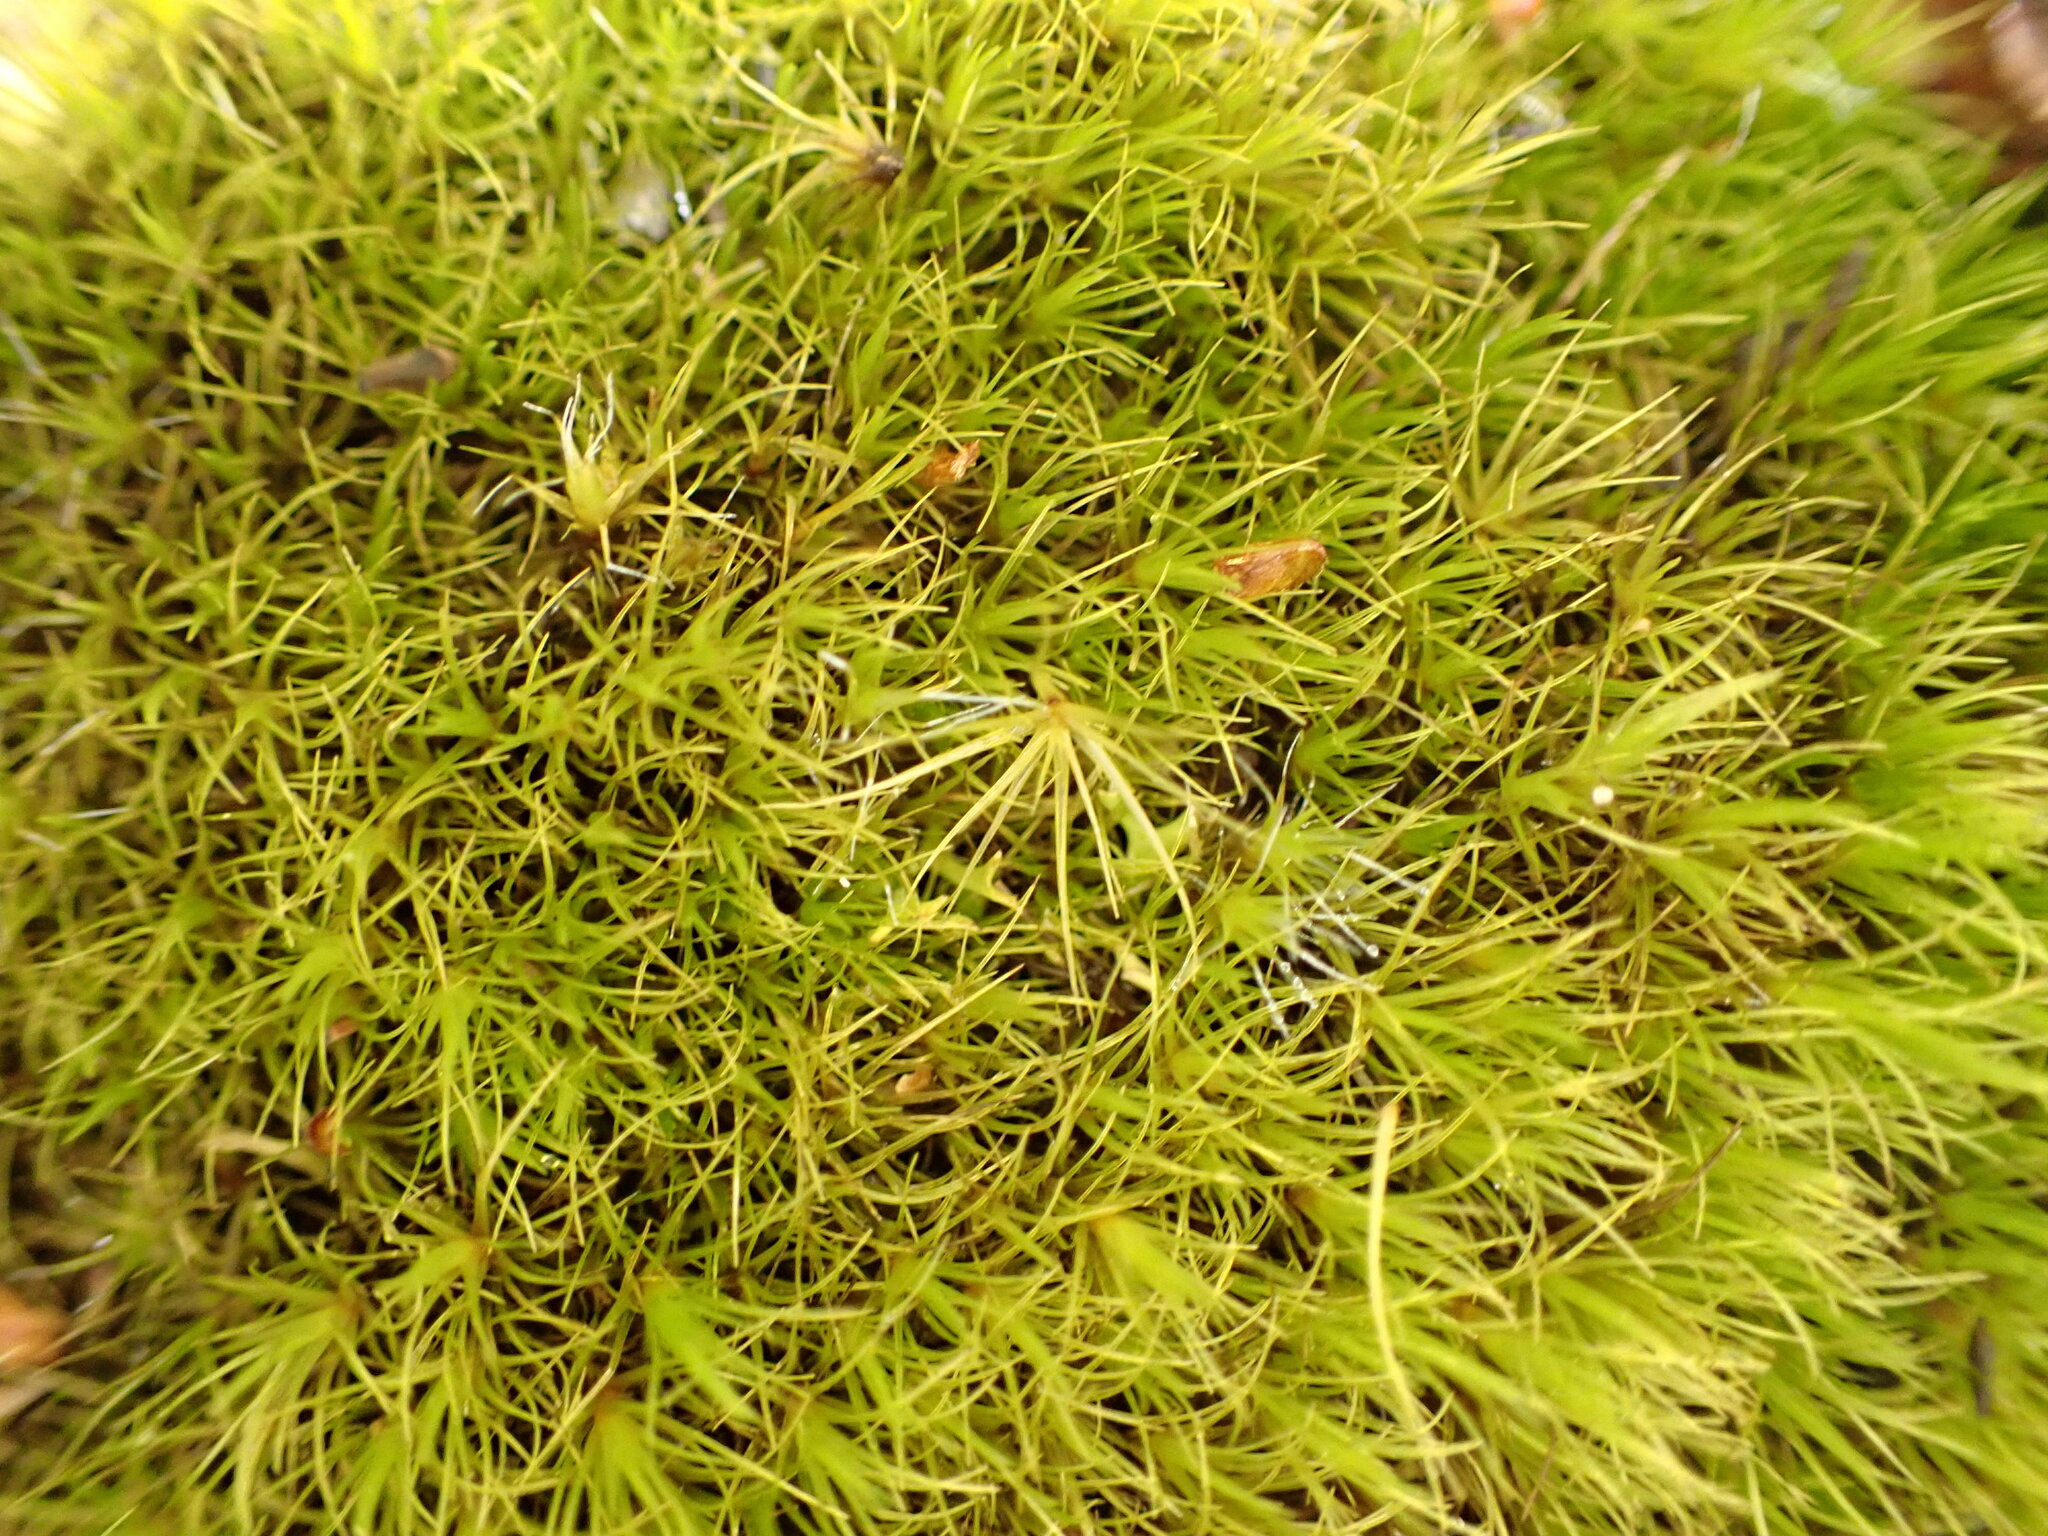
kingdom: Plantae
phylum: Bryophyta
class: Bryopsida
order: Dicranales
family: Leucobryaceae
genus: Campylopus
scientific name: Campylopus clavatus
